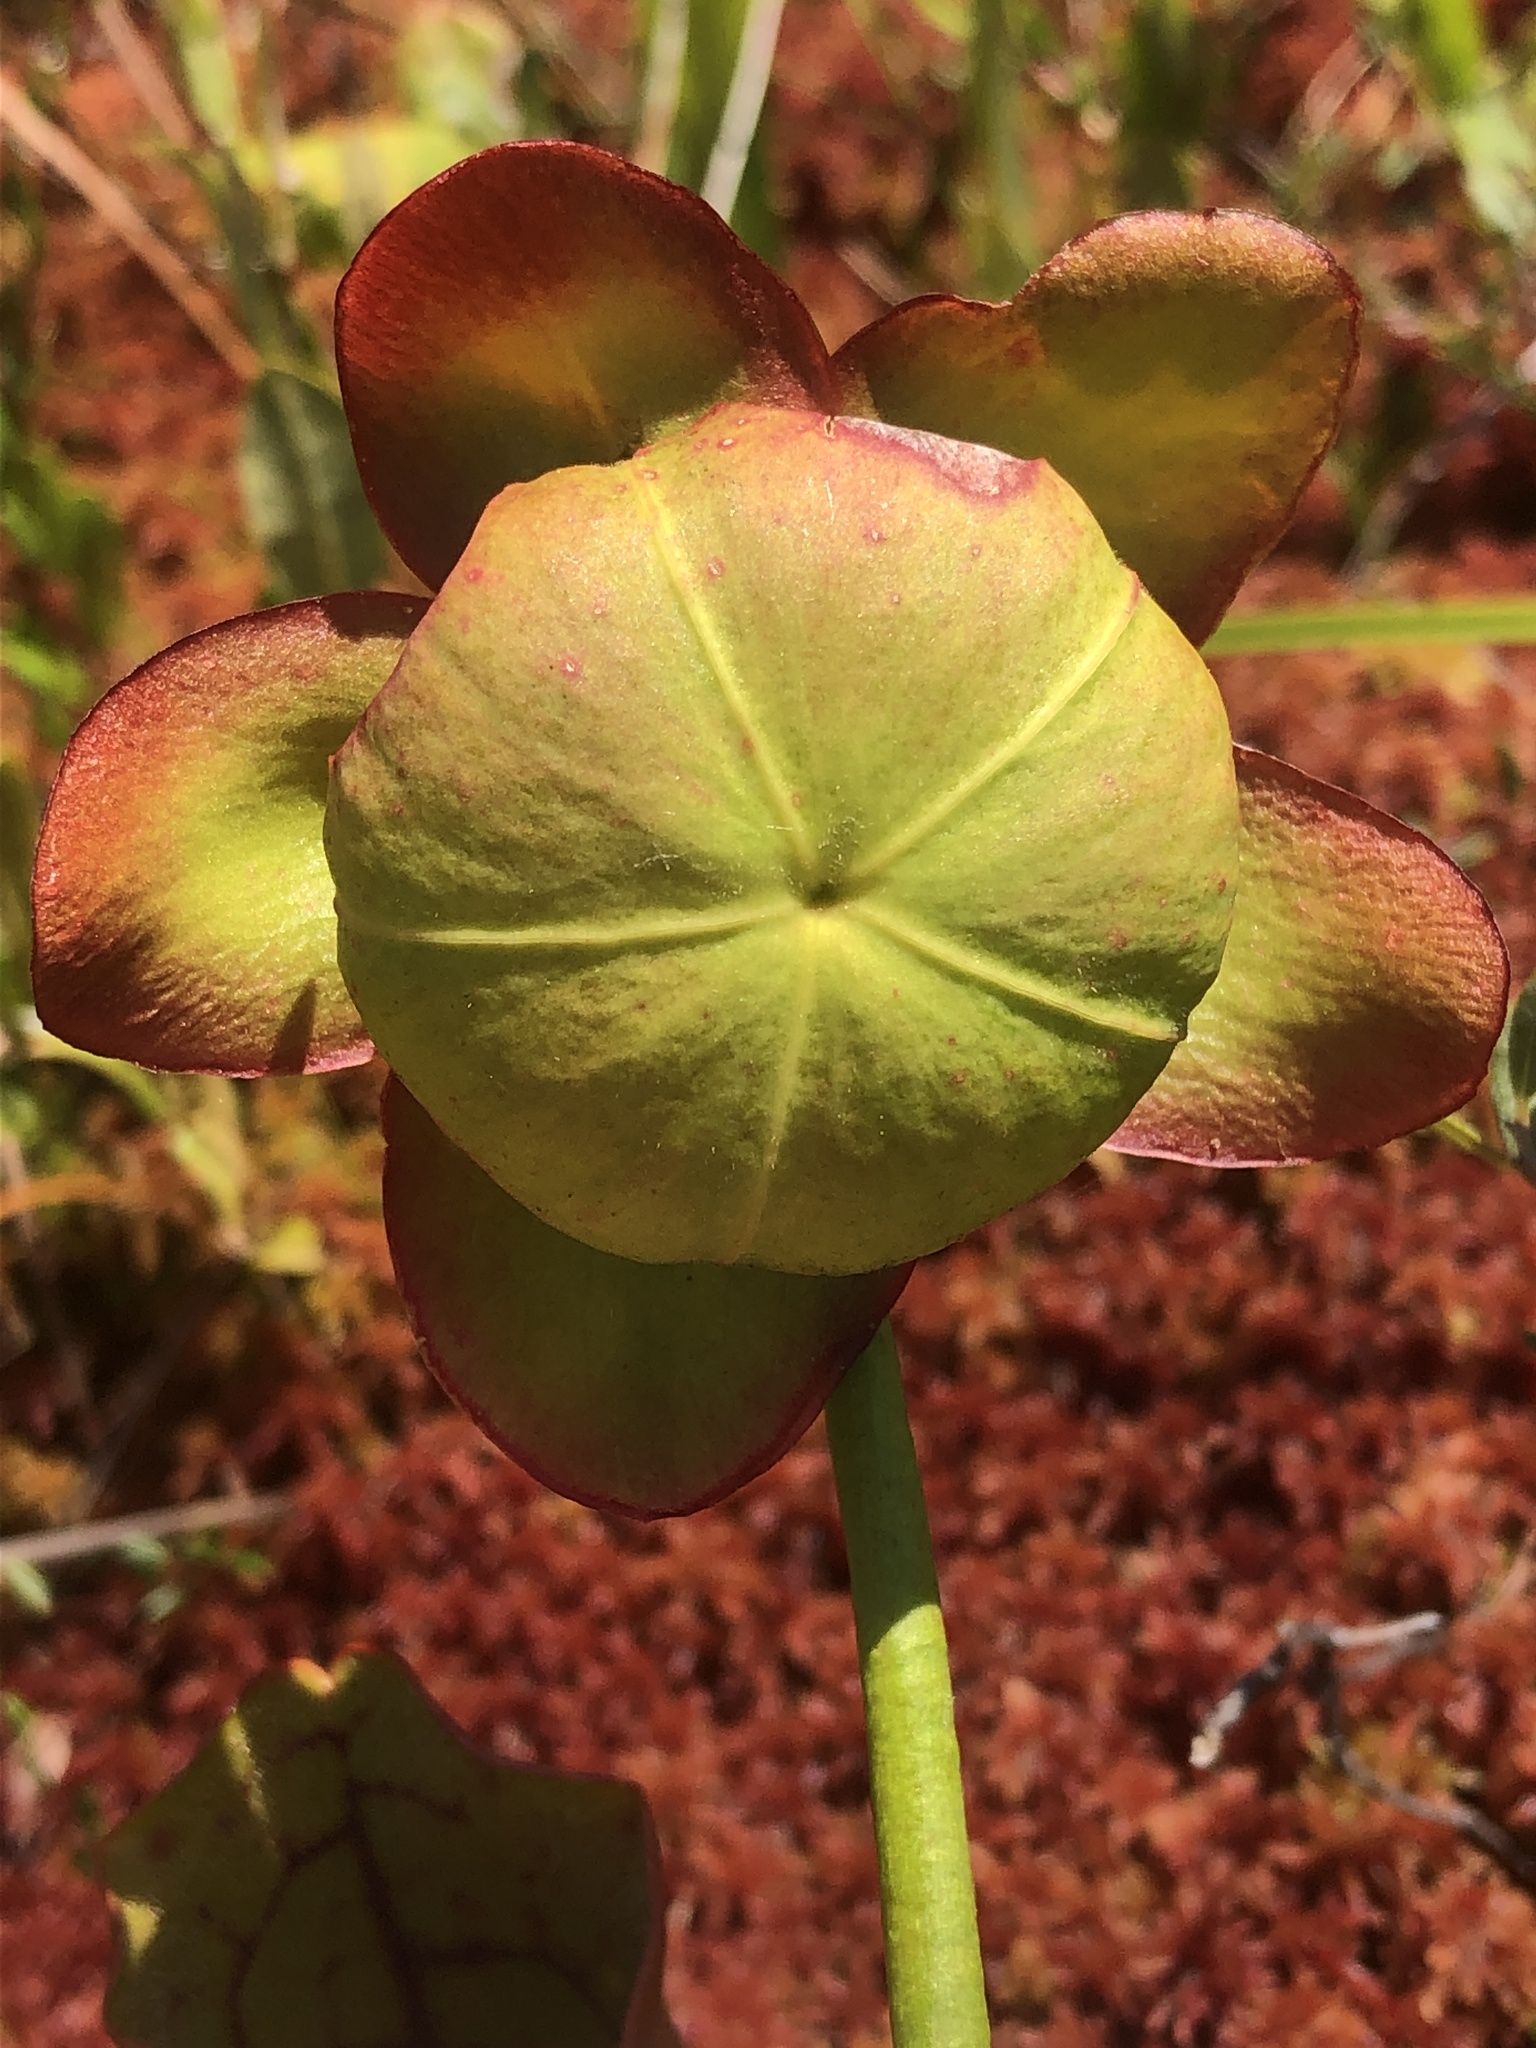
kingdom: Plantae
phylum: Tracheophyta
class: Magnoliopsida
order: Ericales
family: Sarraceniaceae
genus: Sarracenia
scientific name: Sarracenia purpurea
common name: Pitcherplant
